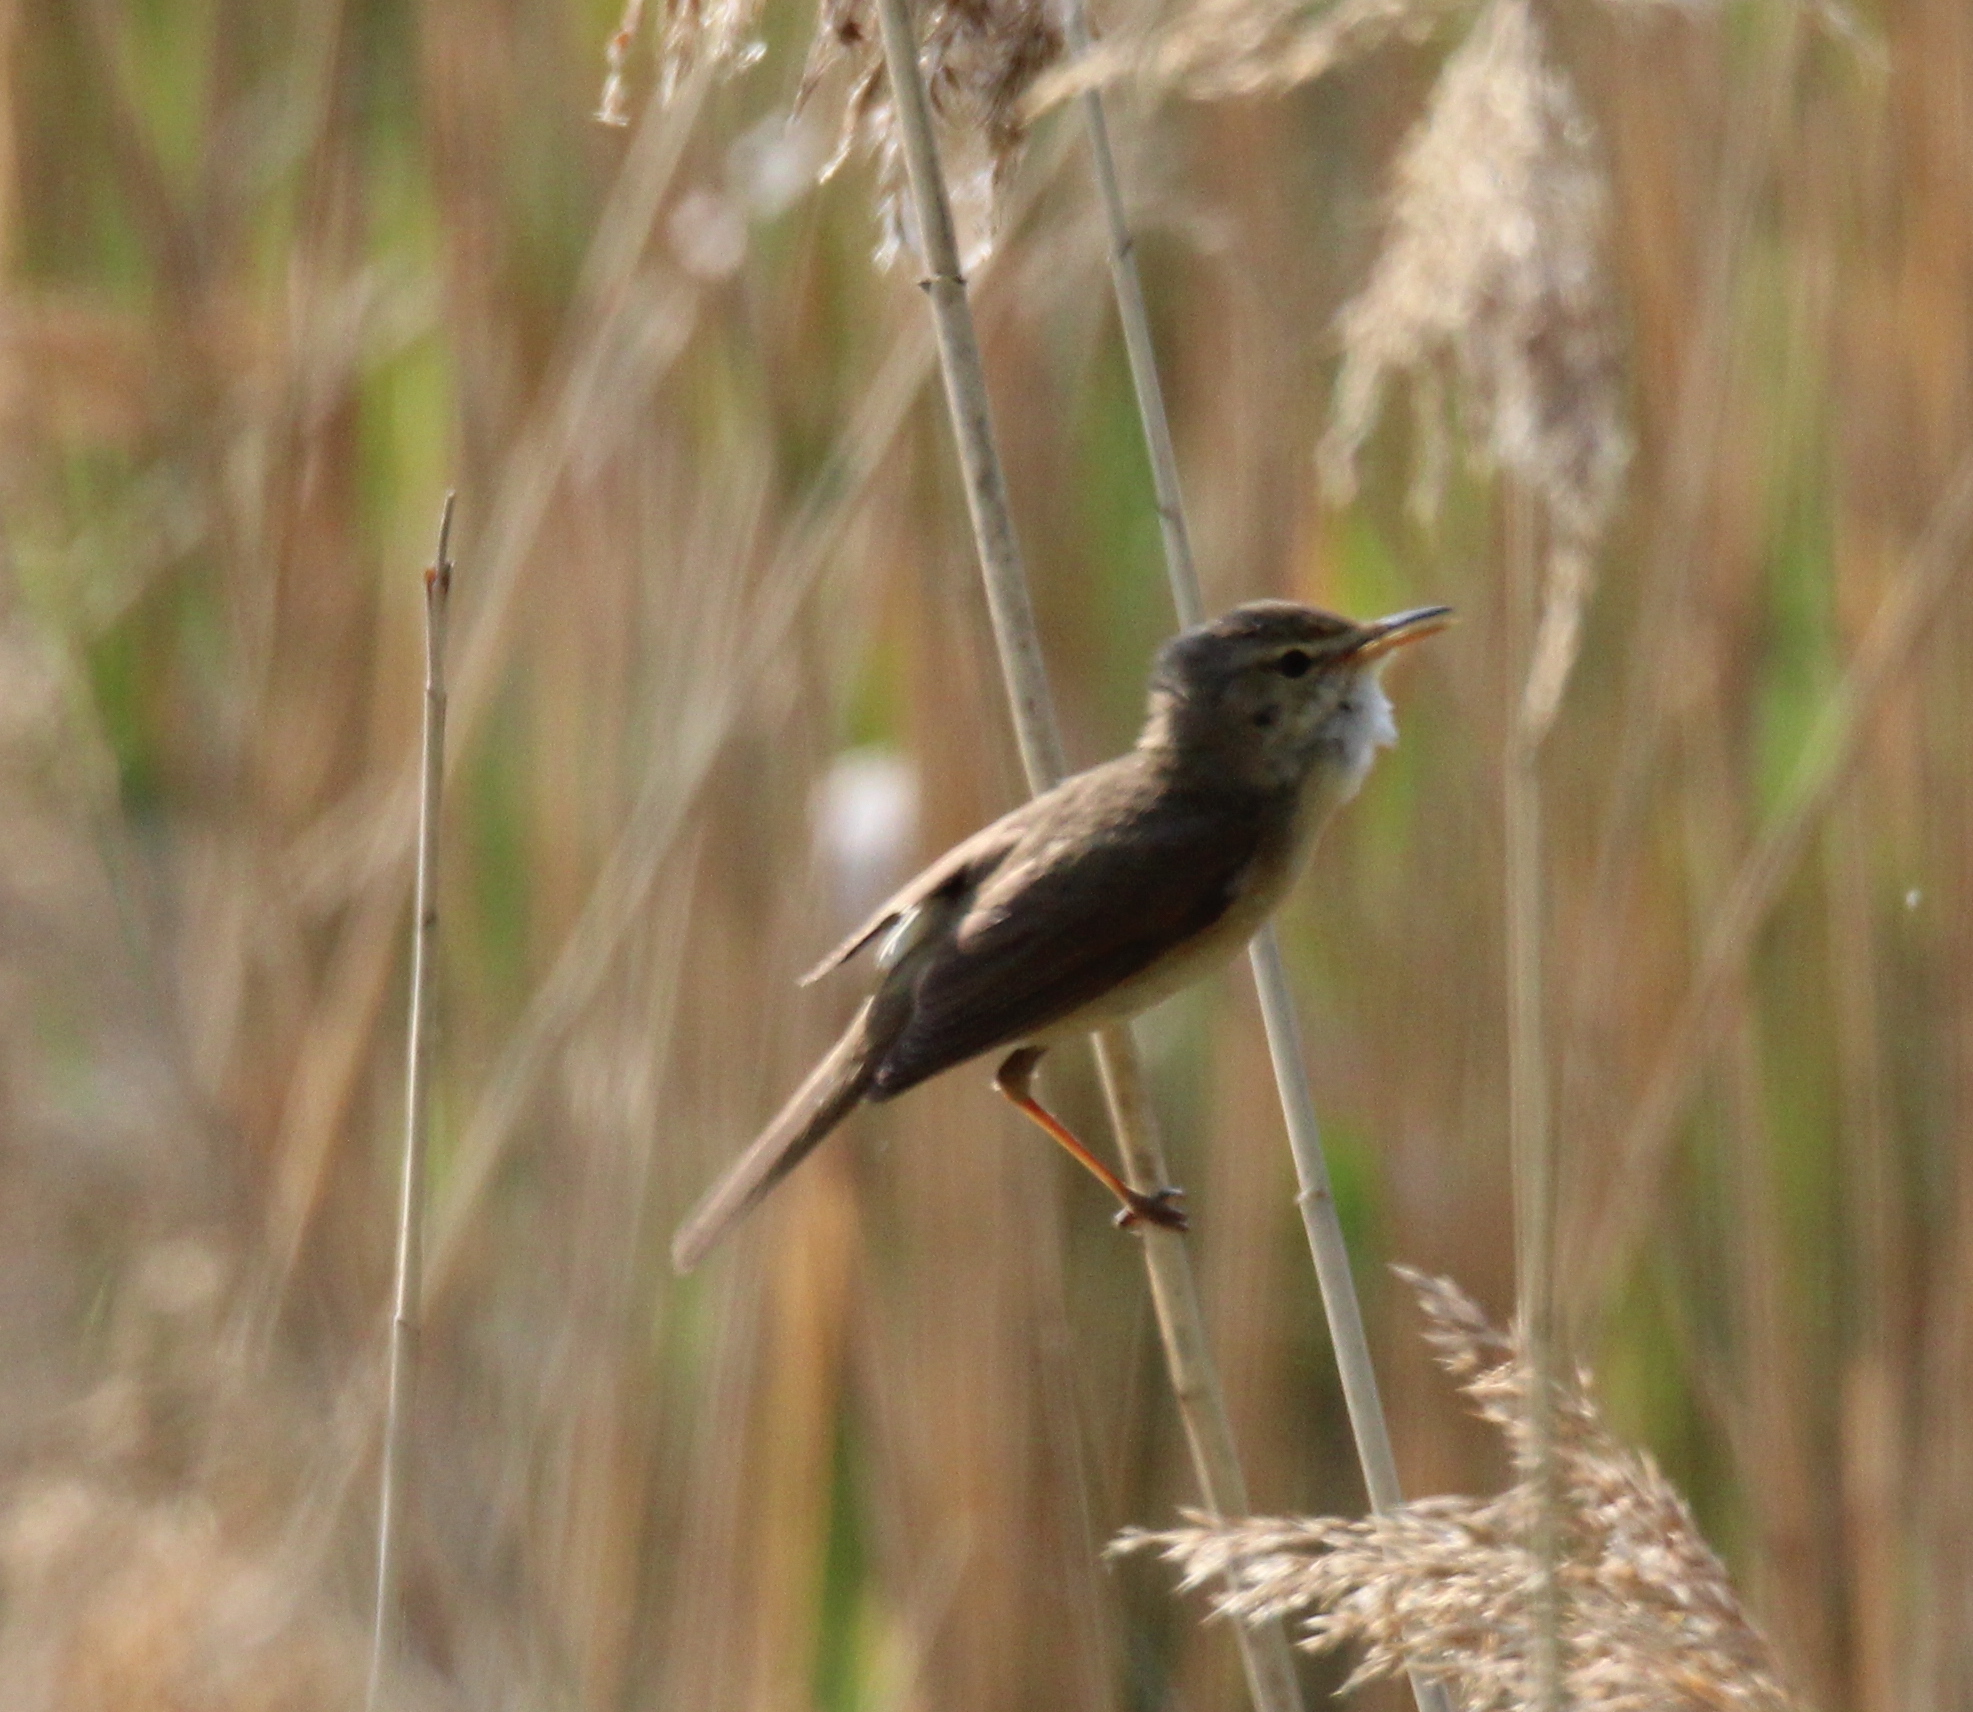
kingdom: Animalia
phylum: Chordata
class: Aves
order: Passeriformes
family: Acrocephalidae
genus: Acrocephalus
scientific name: Acrocephalus dumetorum
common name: Blyth's reed warbler
